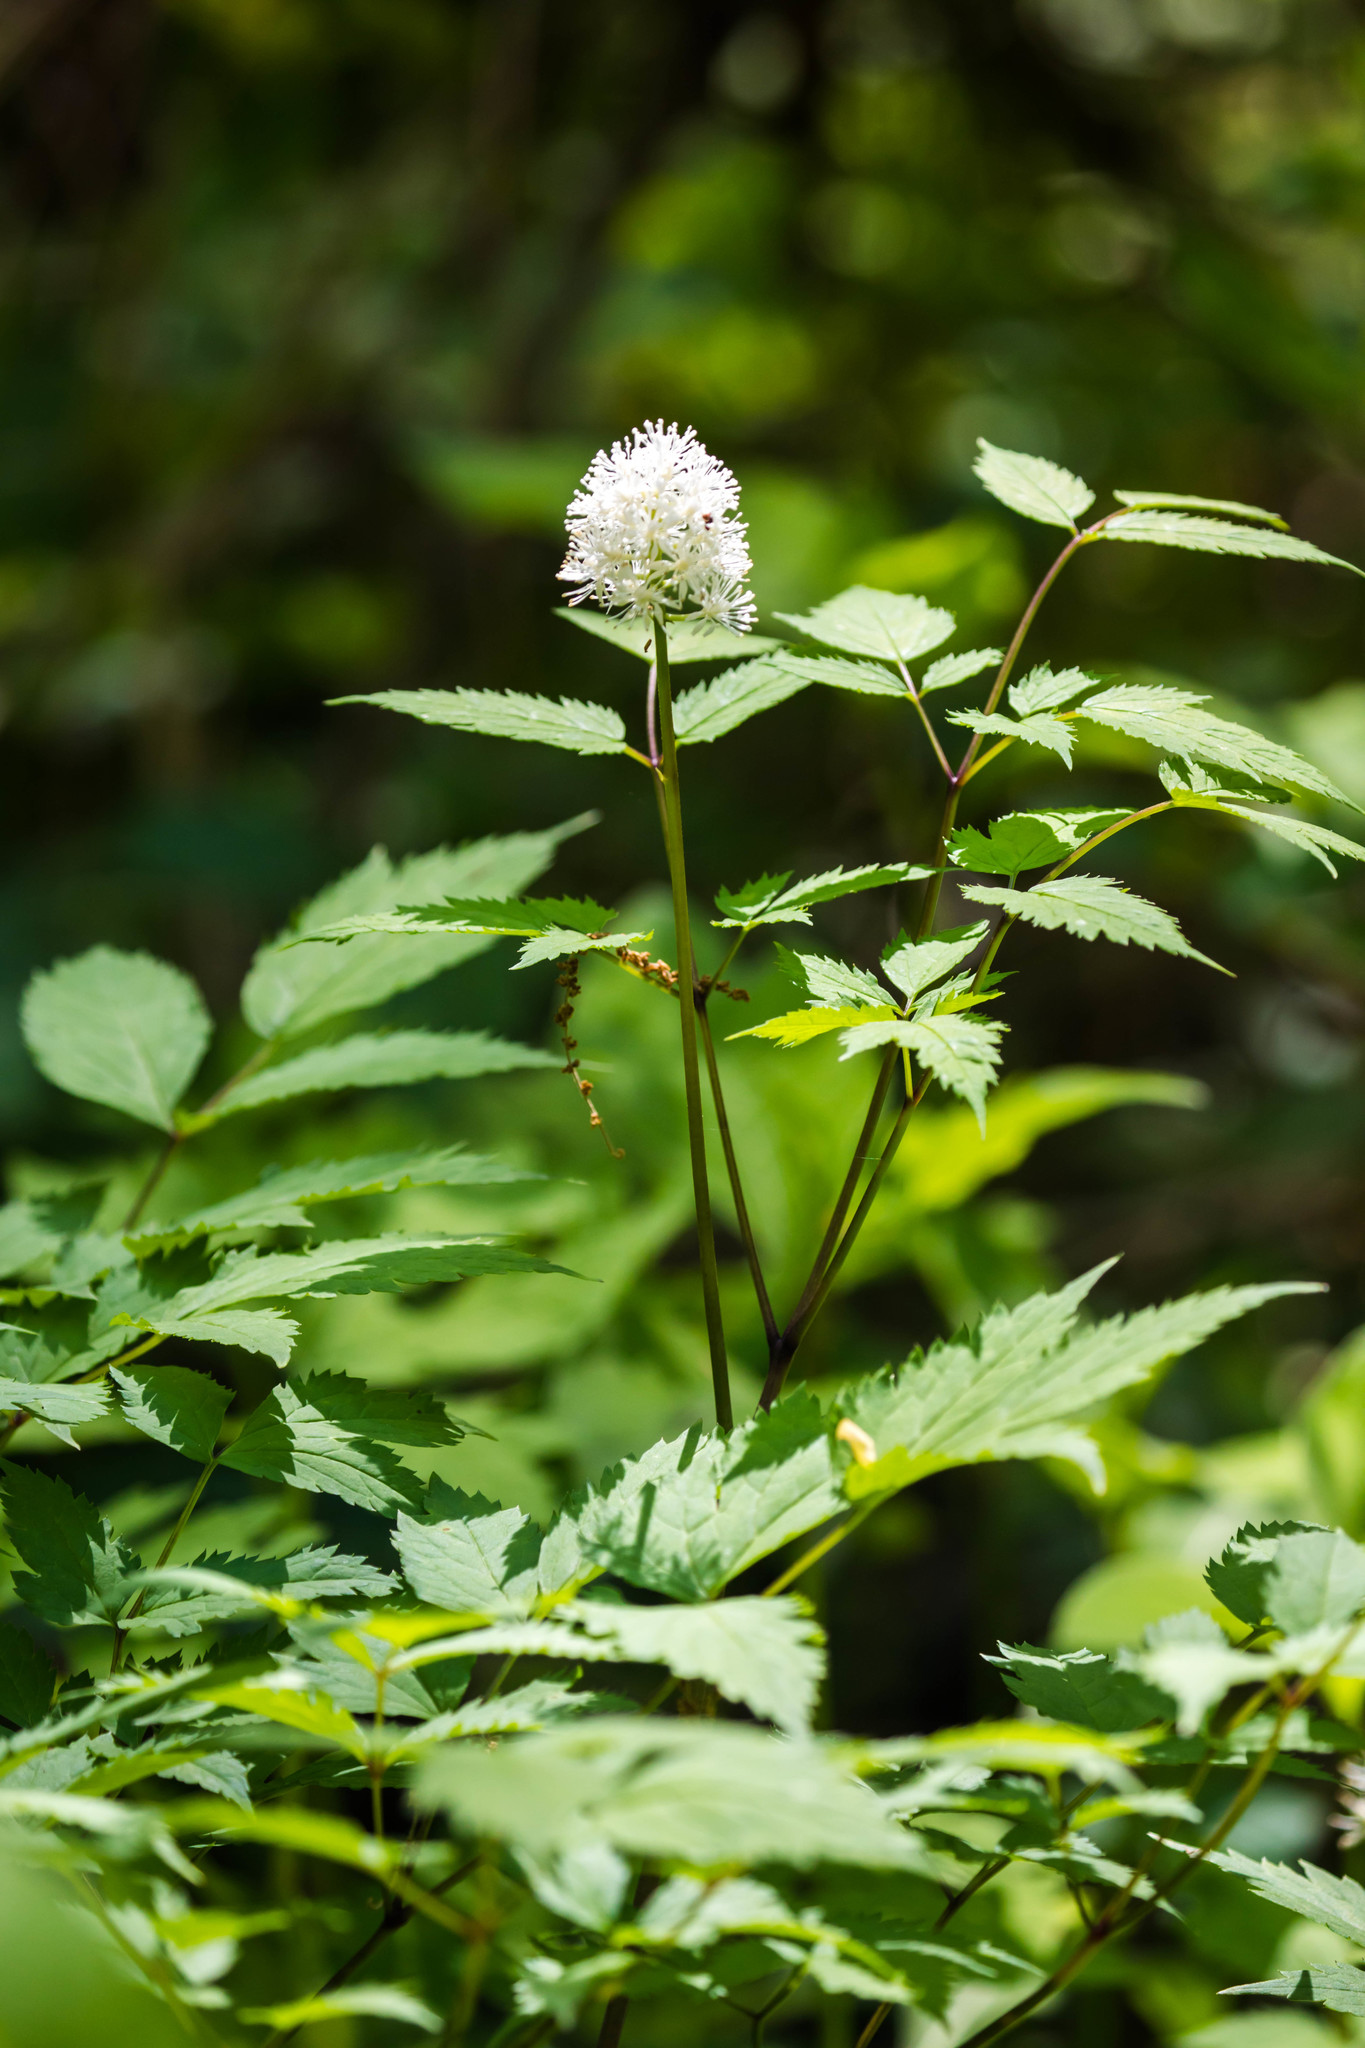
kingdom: Plantae
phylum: Tracheophyta
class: Magnoliopsida
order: Ranunculales
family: Ranunculaceae
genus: Actaea
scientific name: Actaea pachypoda
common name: Doll's-eyes
